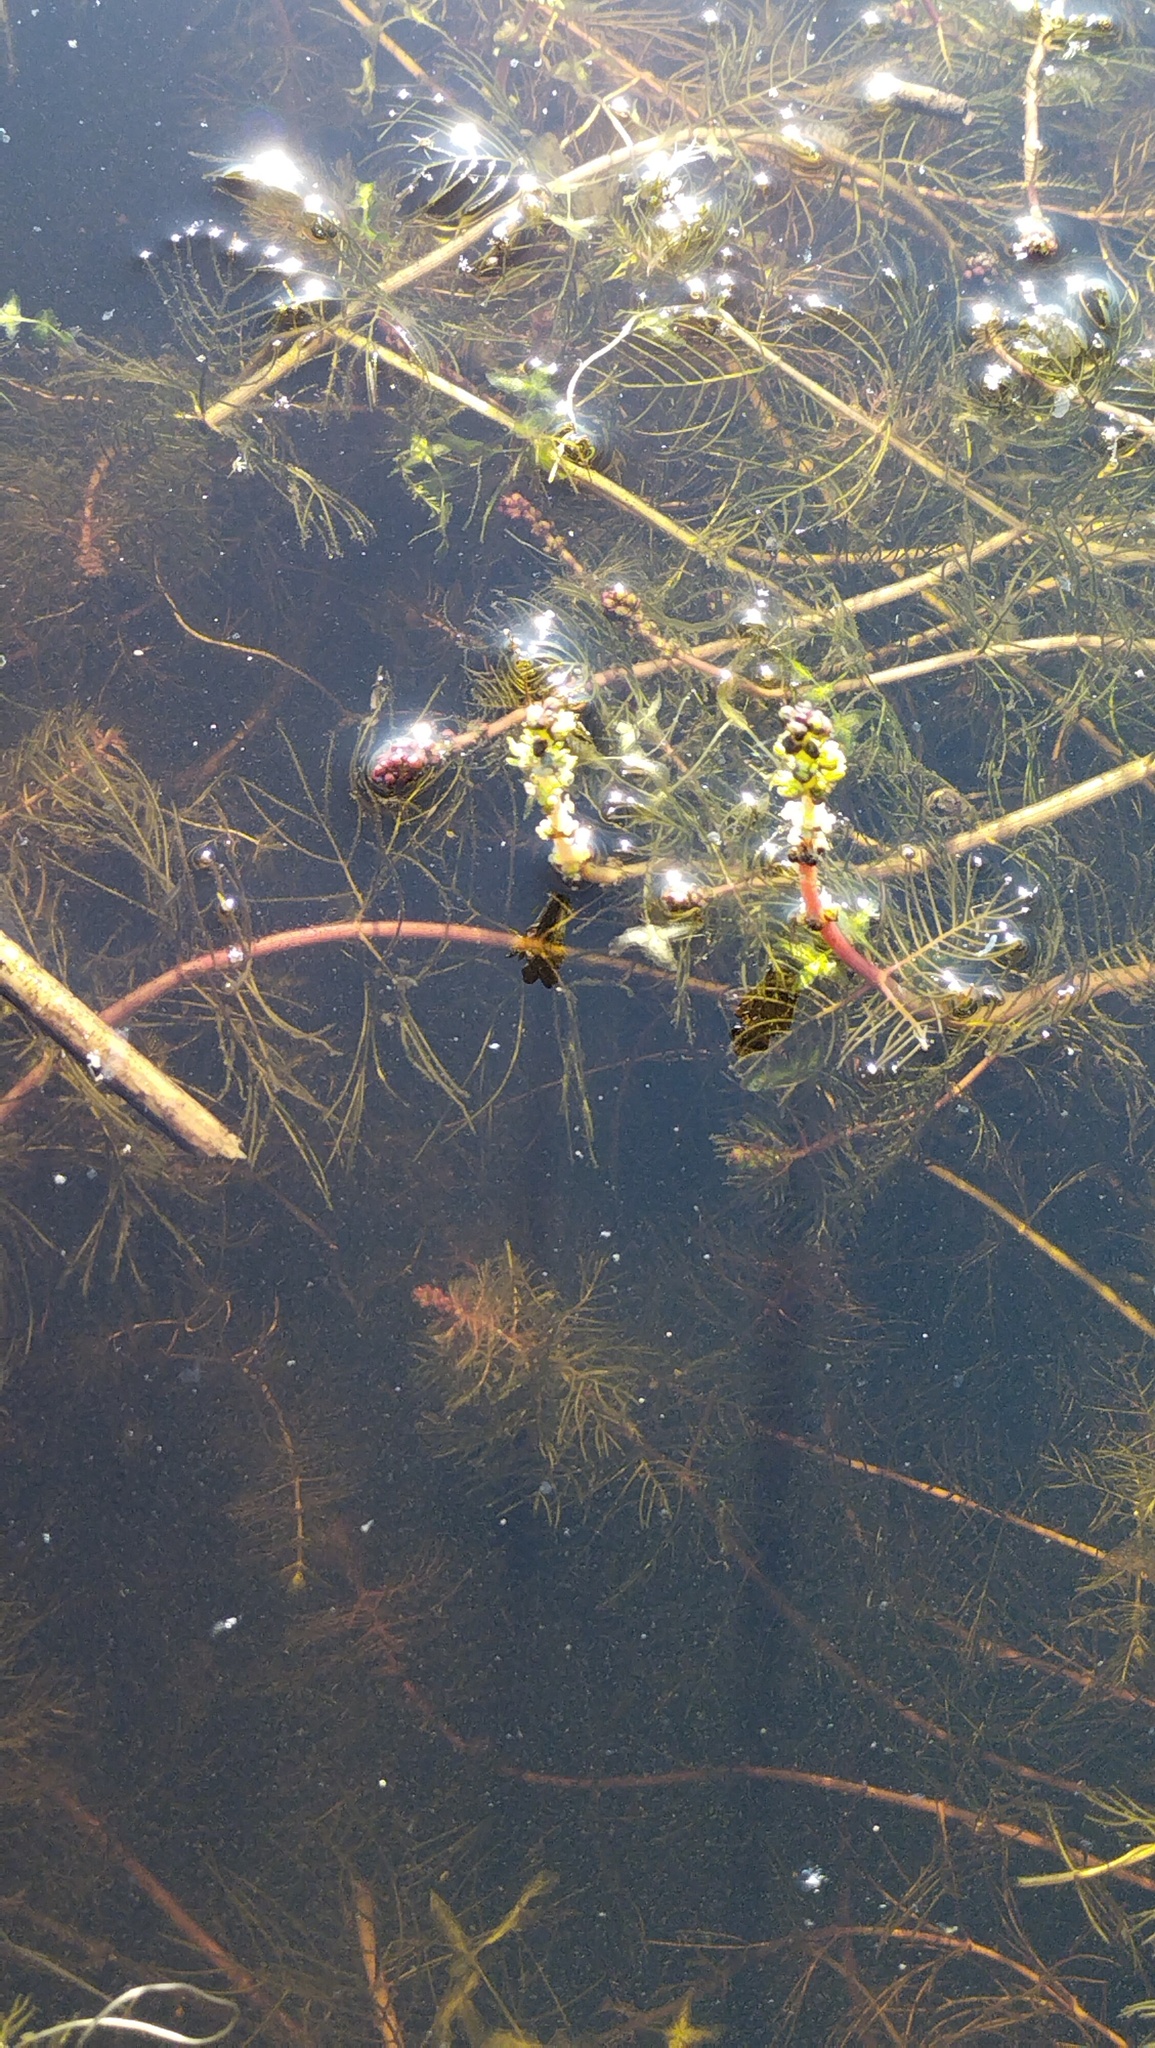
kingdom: Plantae
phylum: Tracheophyta
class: Magnoliopsida
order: Saxifragales
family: Haloragaceae
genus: Myriophyllum
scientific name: Myriophyllum sibiricum
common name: Siberian water-milfoil
